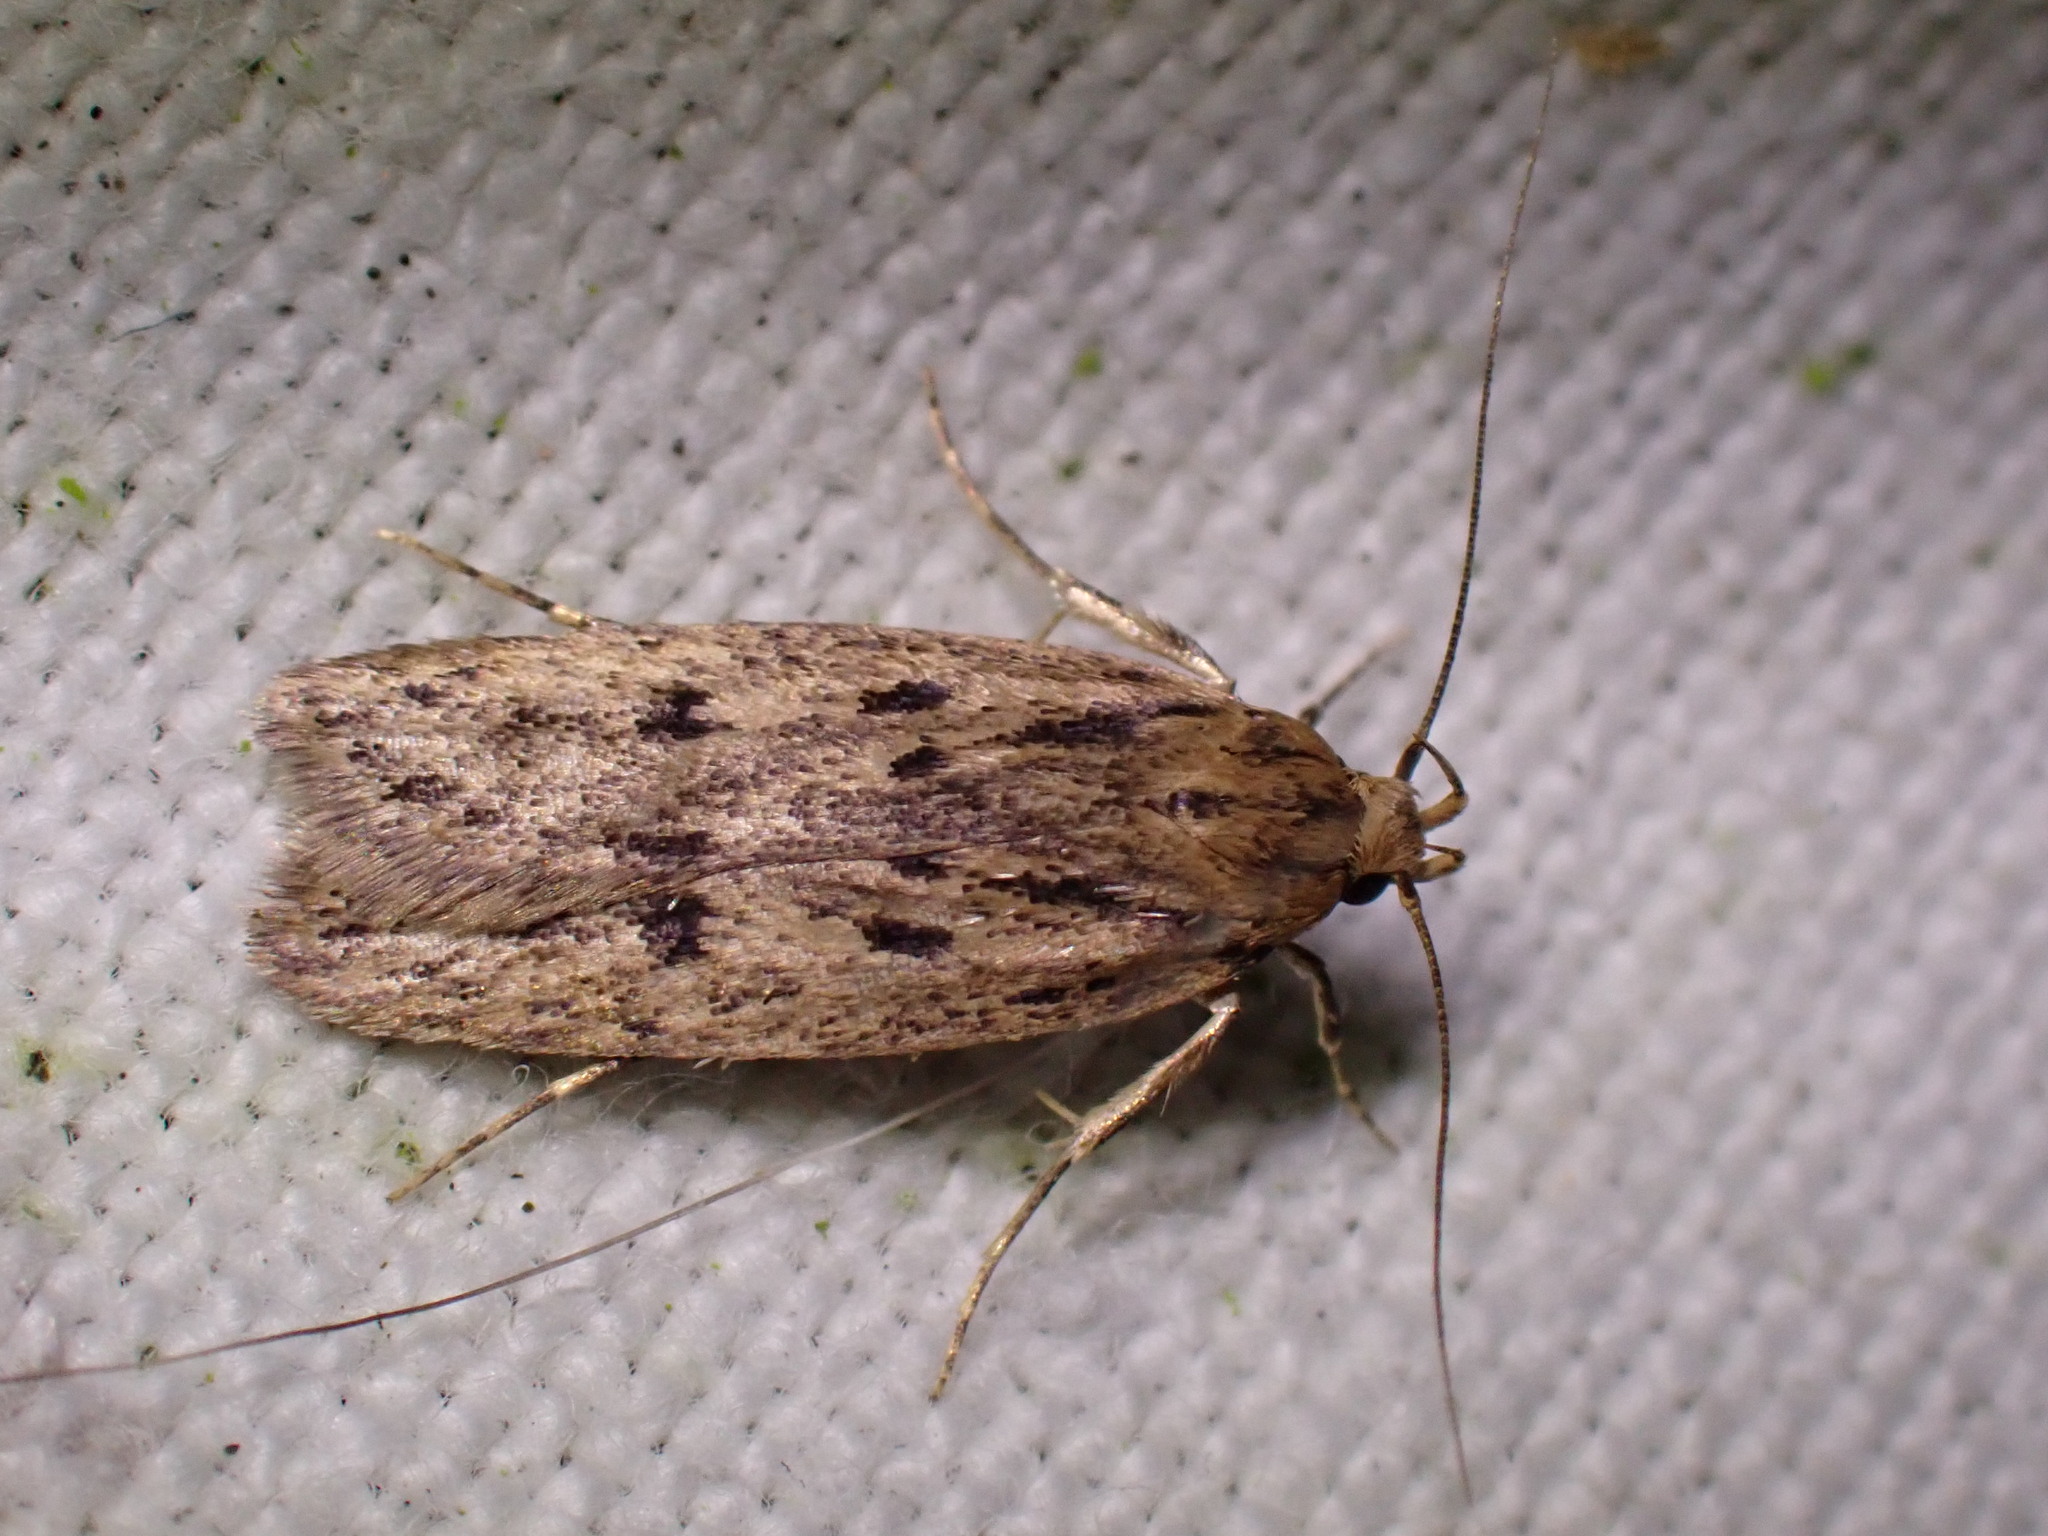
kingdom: Animalia
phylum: Arthropoda
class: Insecta
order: Lepidoptera
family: Oecophoridae
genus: Hofmannophila
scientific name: Hofmannophila pseudospretella
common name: Brown house moth
